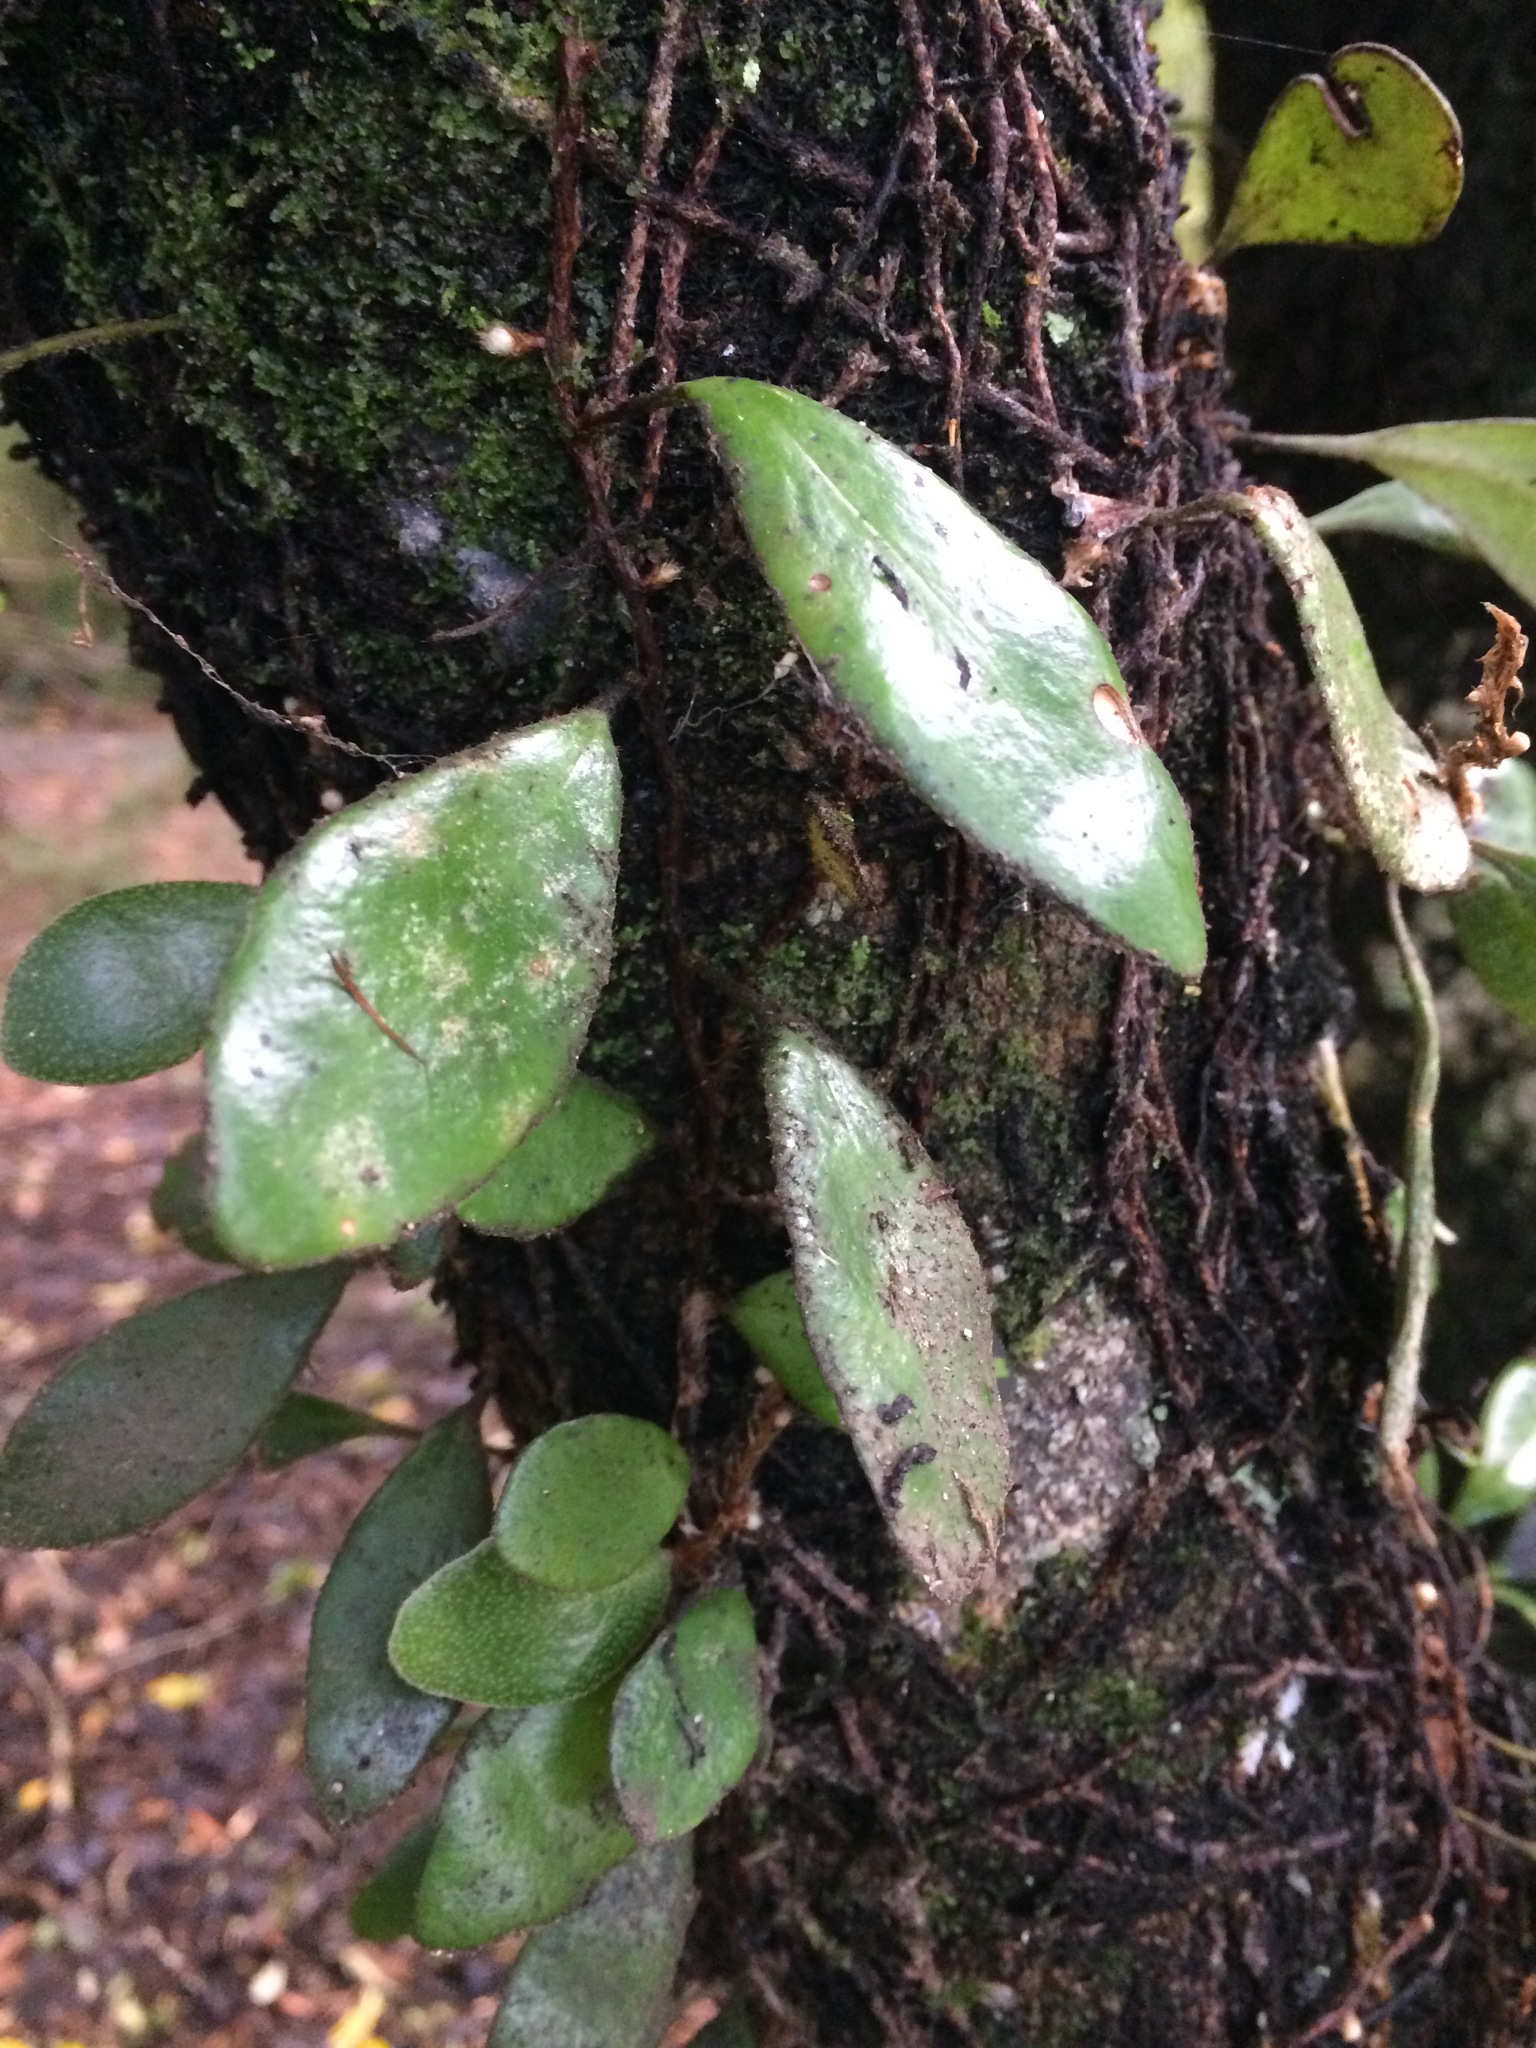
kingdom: Plantae
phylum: Tracheophyta
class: Polypodiopsida
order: Polypodiales
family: Polypodiaceae
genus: Pyrrosia
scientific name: Pyrrosia eleagnifolia
